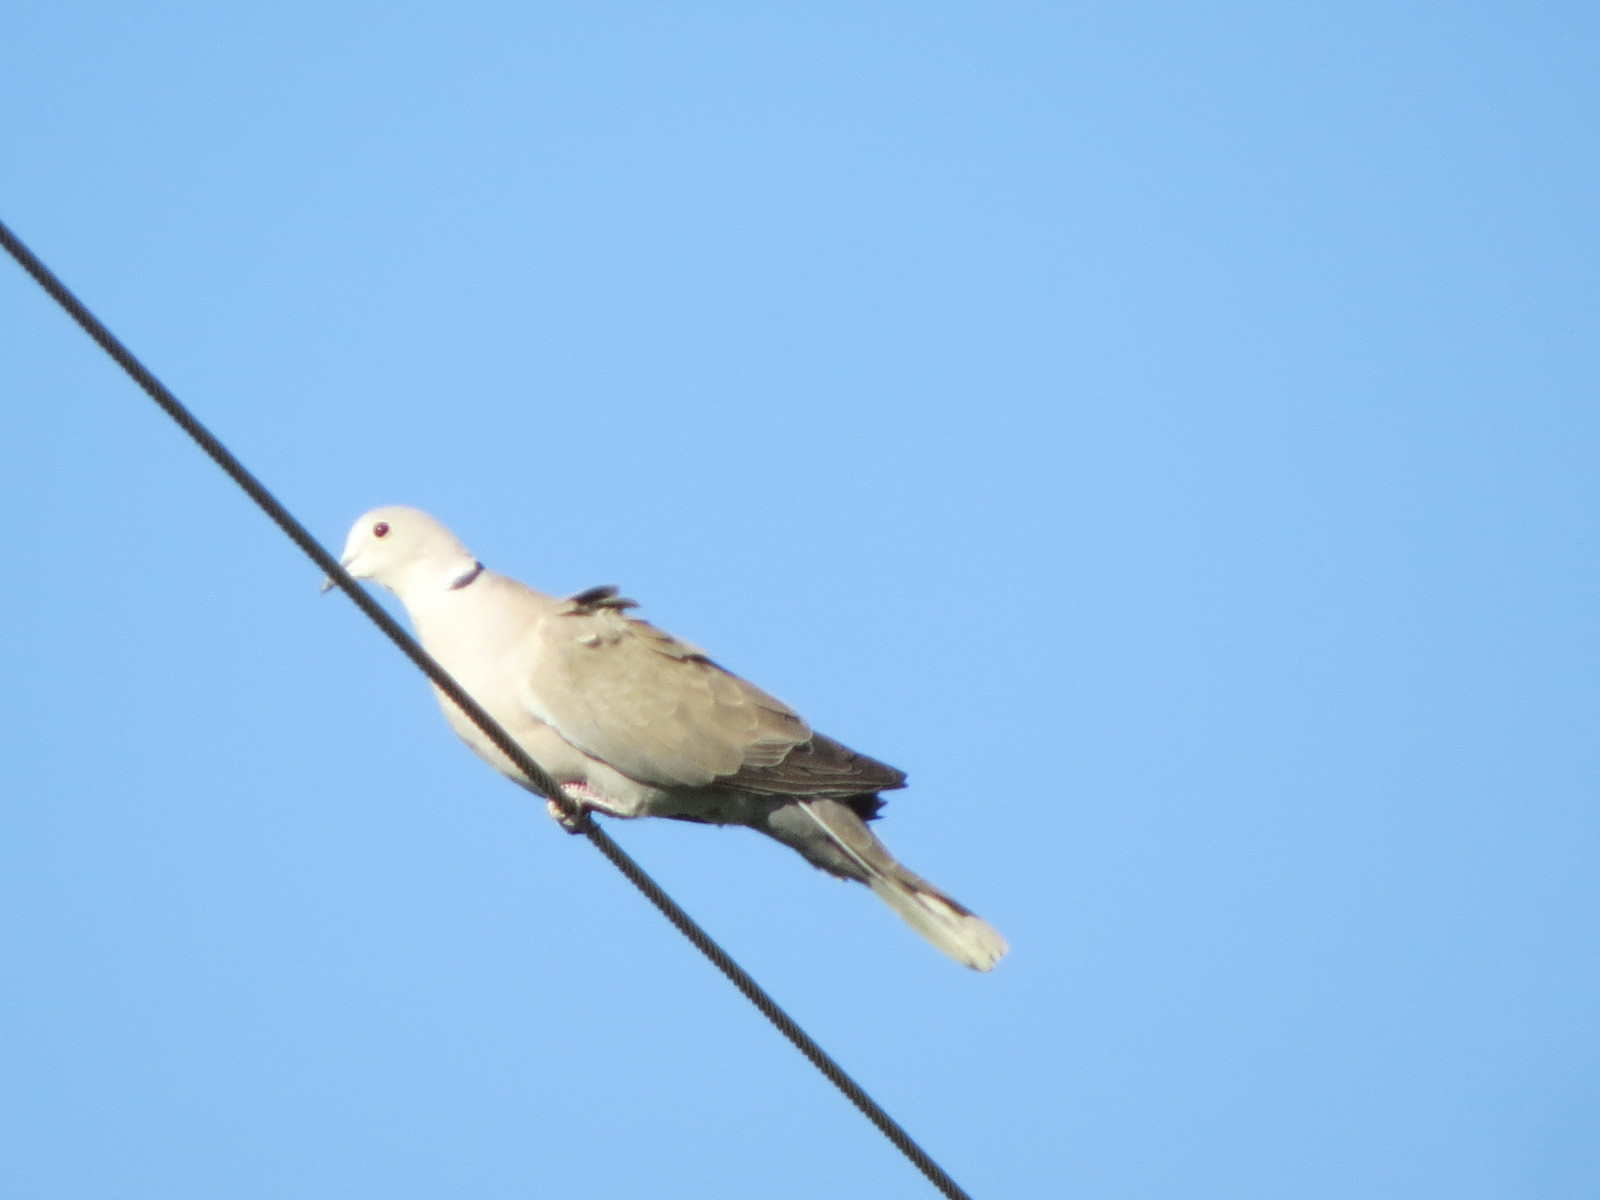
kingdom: Animalia
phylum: Chordata
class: Aves
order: Columbiformes
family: Columbidae
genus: Streptopelia
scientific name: Streptopelia decaocto
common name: Eurasian collared dove
